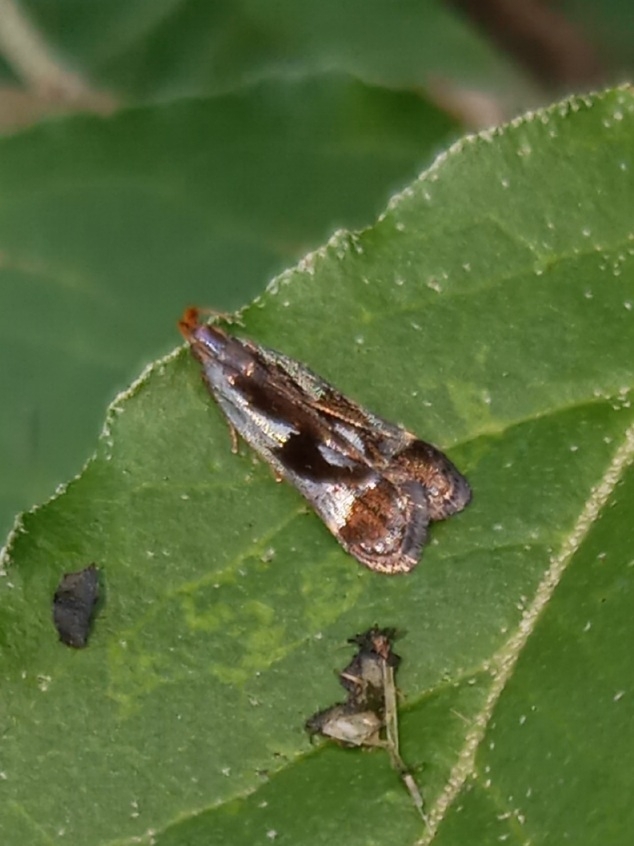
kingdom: Animalia
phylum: Arthropoda
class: Insecta
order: Lepidoptera
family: Gelechiidae
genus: Dichomeris
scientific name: Dichomeris ochripalpella
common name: Shining dichomeris moth
